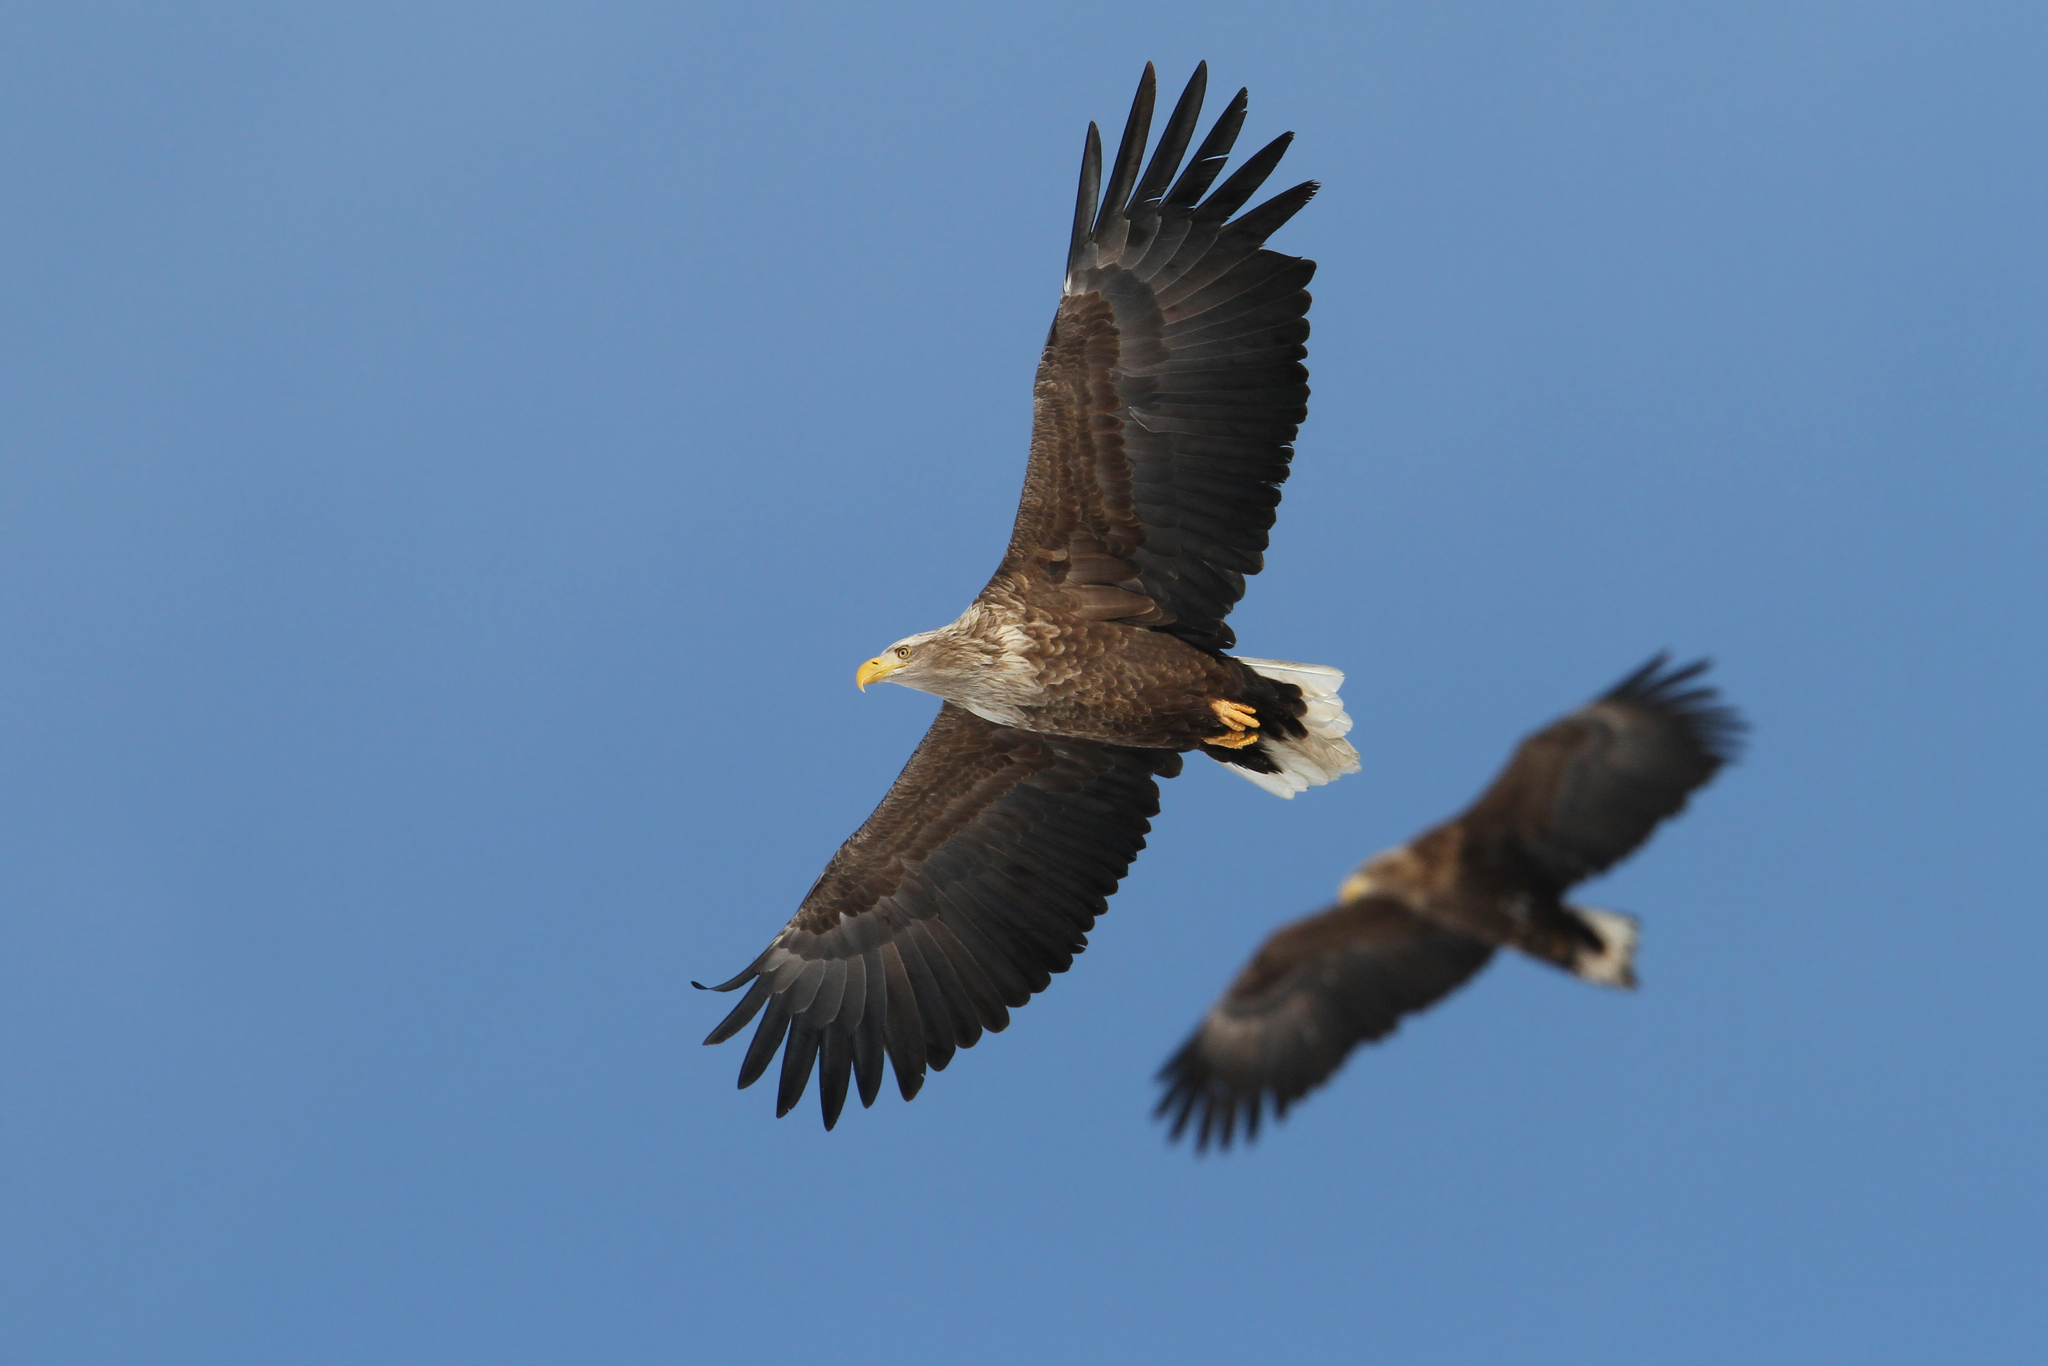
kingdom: Animalia
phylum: Chordata
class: Aves
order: Accipitriformes
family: Accipitridae
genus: Haliaeetus
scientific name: Haliaeetus albicilla
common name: White-tailed eagle
